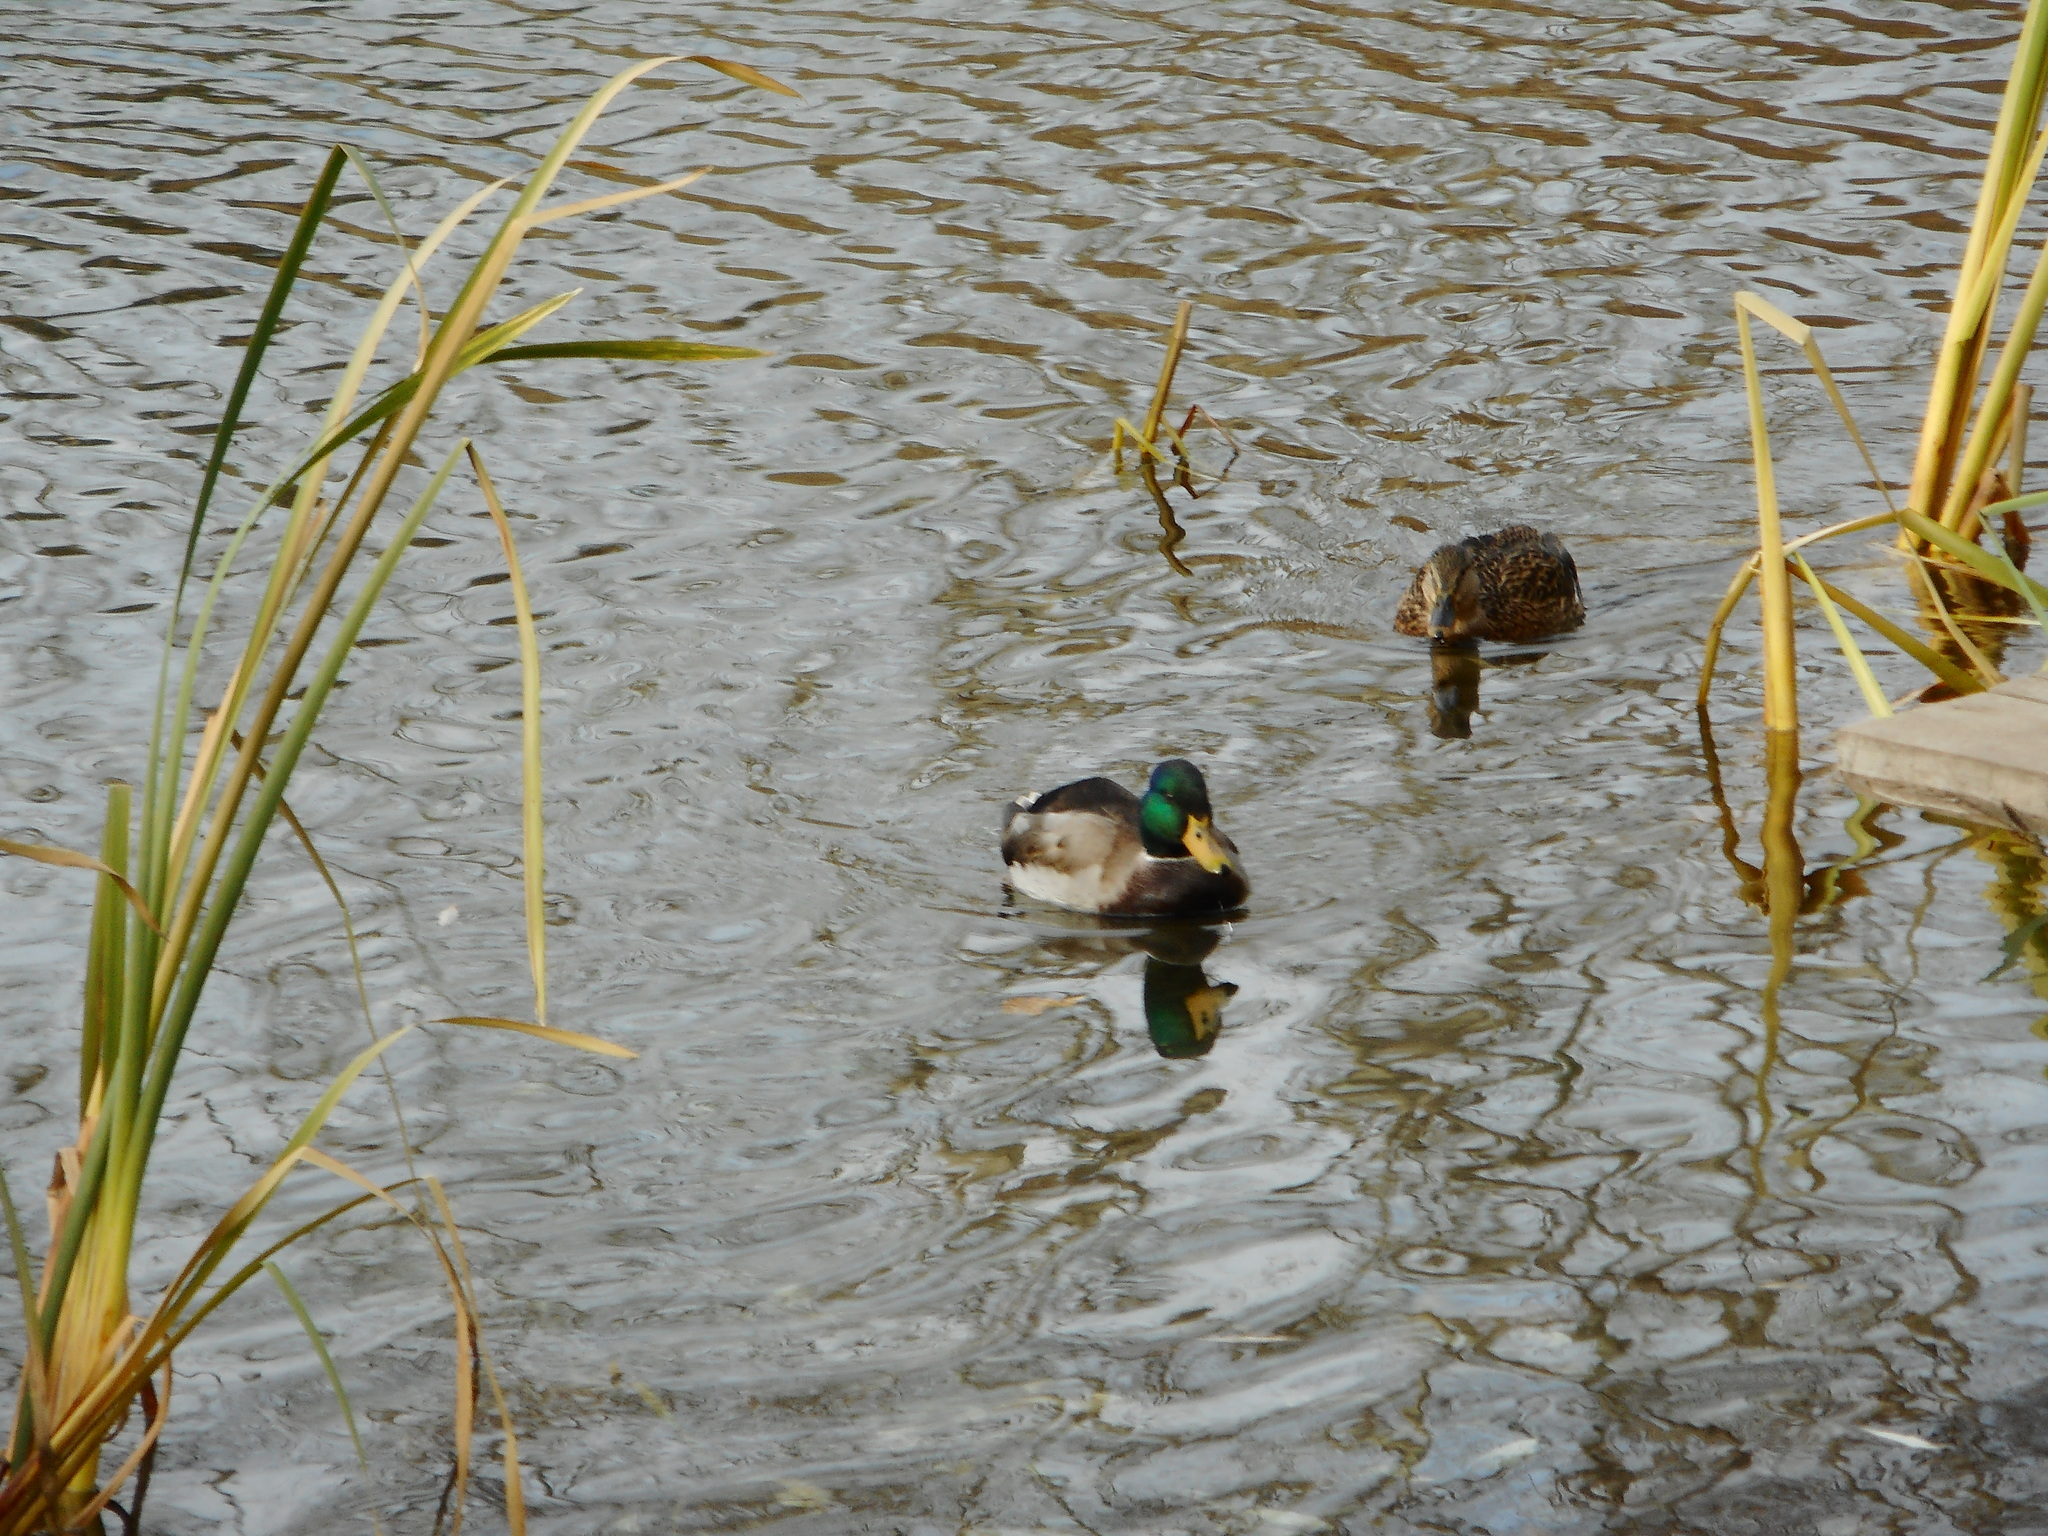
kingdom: Animalia
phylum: Chordata
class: Aves
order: Anseriformes
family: Anatidae
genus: Anas
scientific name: Anas platyrhynchos
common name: Mallard
